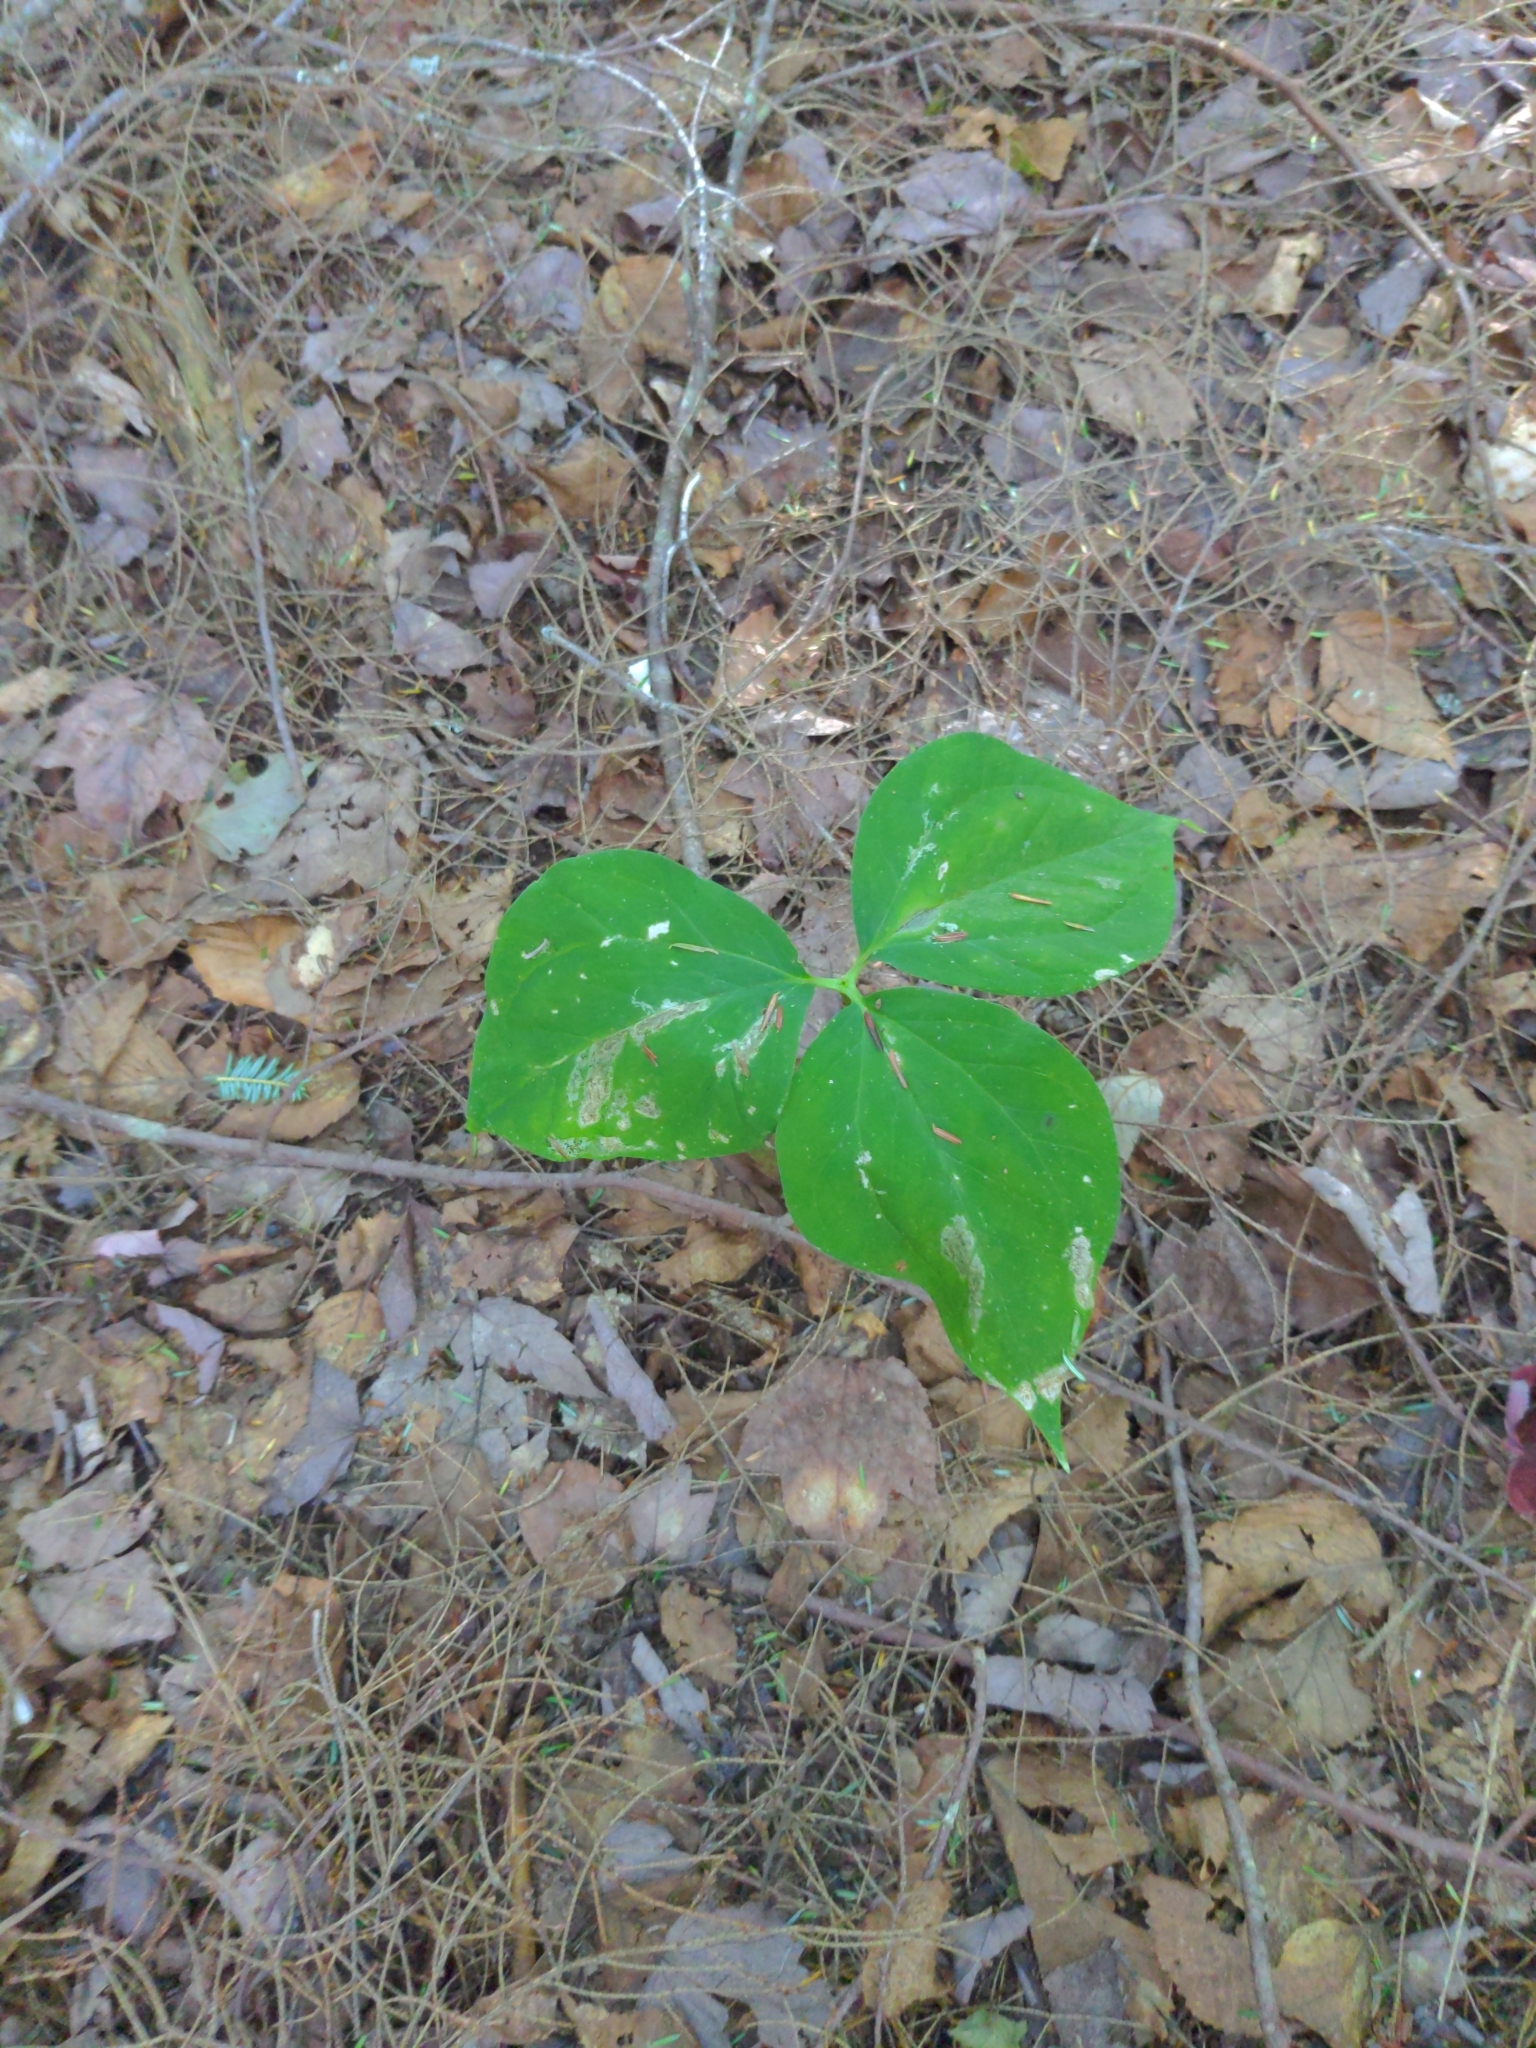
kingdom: Plantae
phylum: Tracheophyta
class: Liliopsida
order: Liliales
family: Melanthiaceae
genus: Trillium
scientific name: Trillium undulatum
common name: Paint trillium
